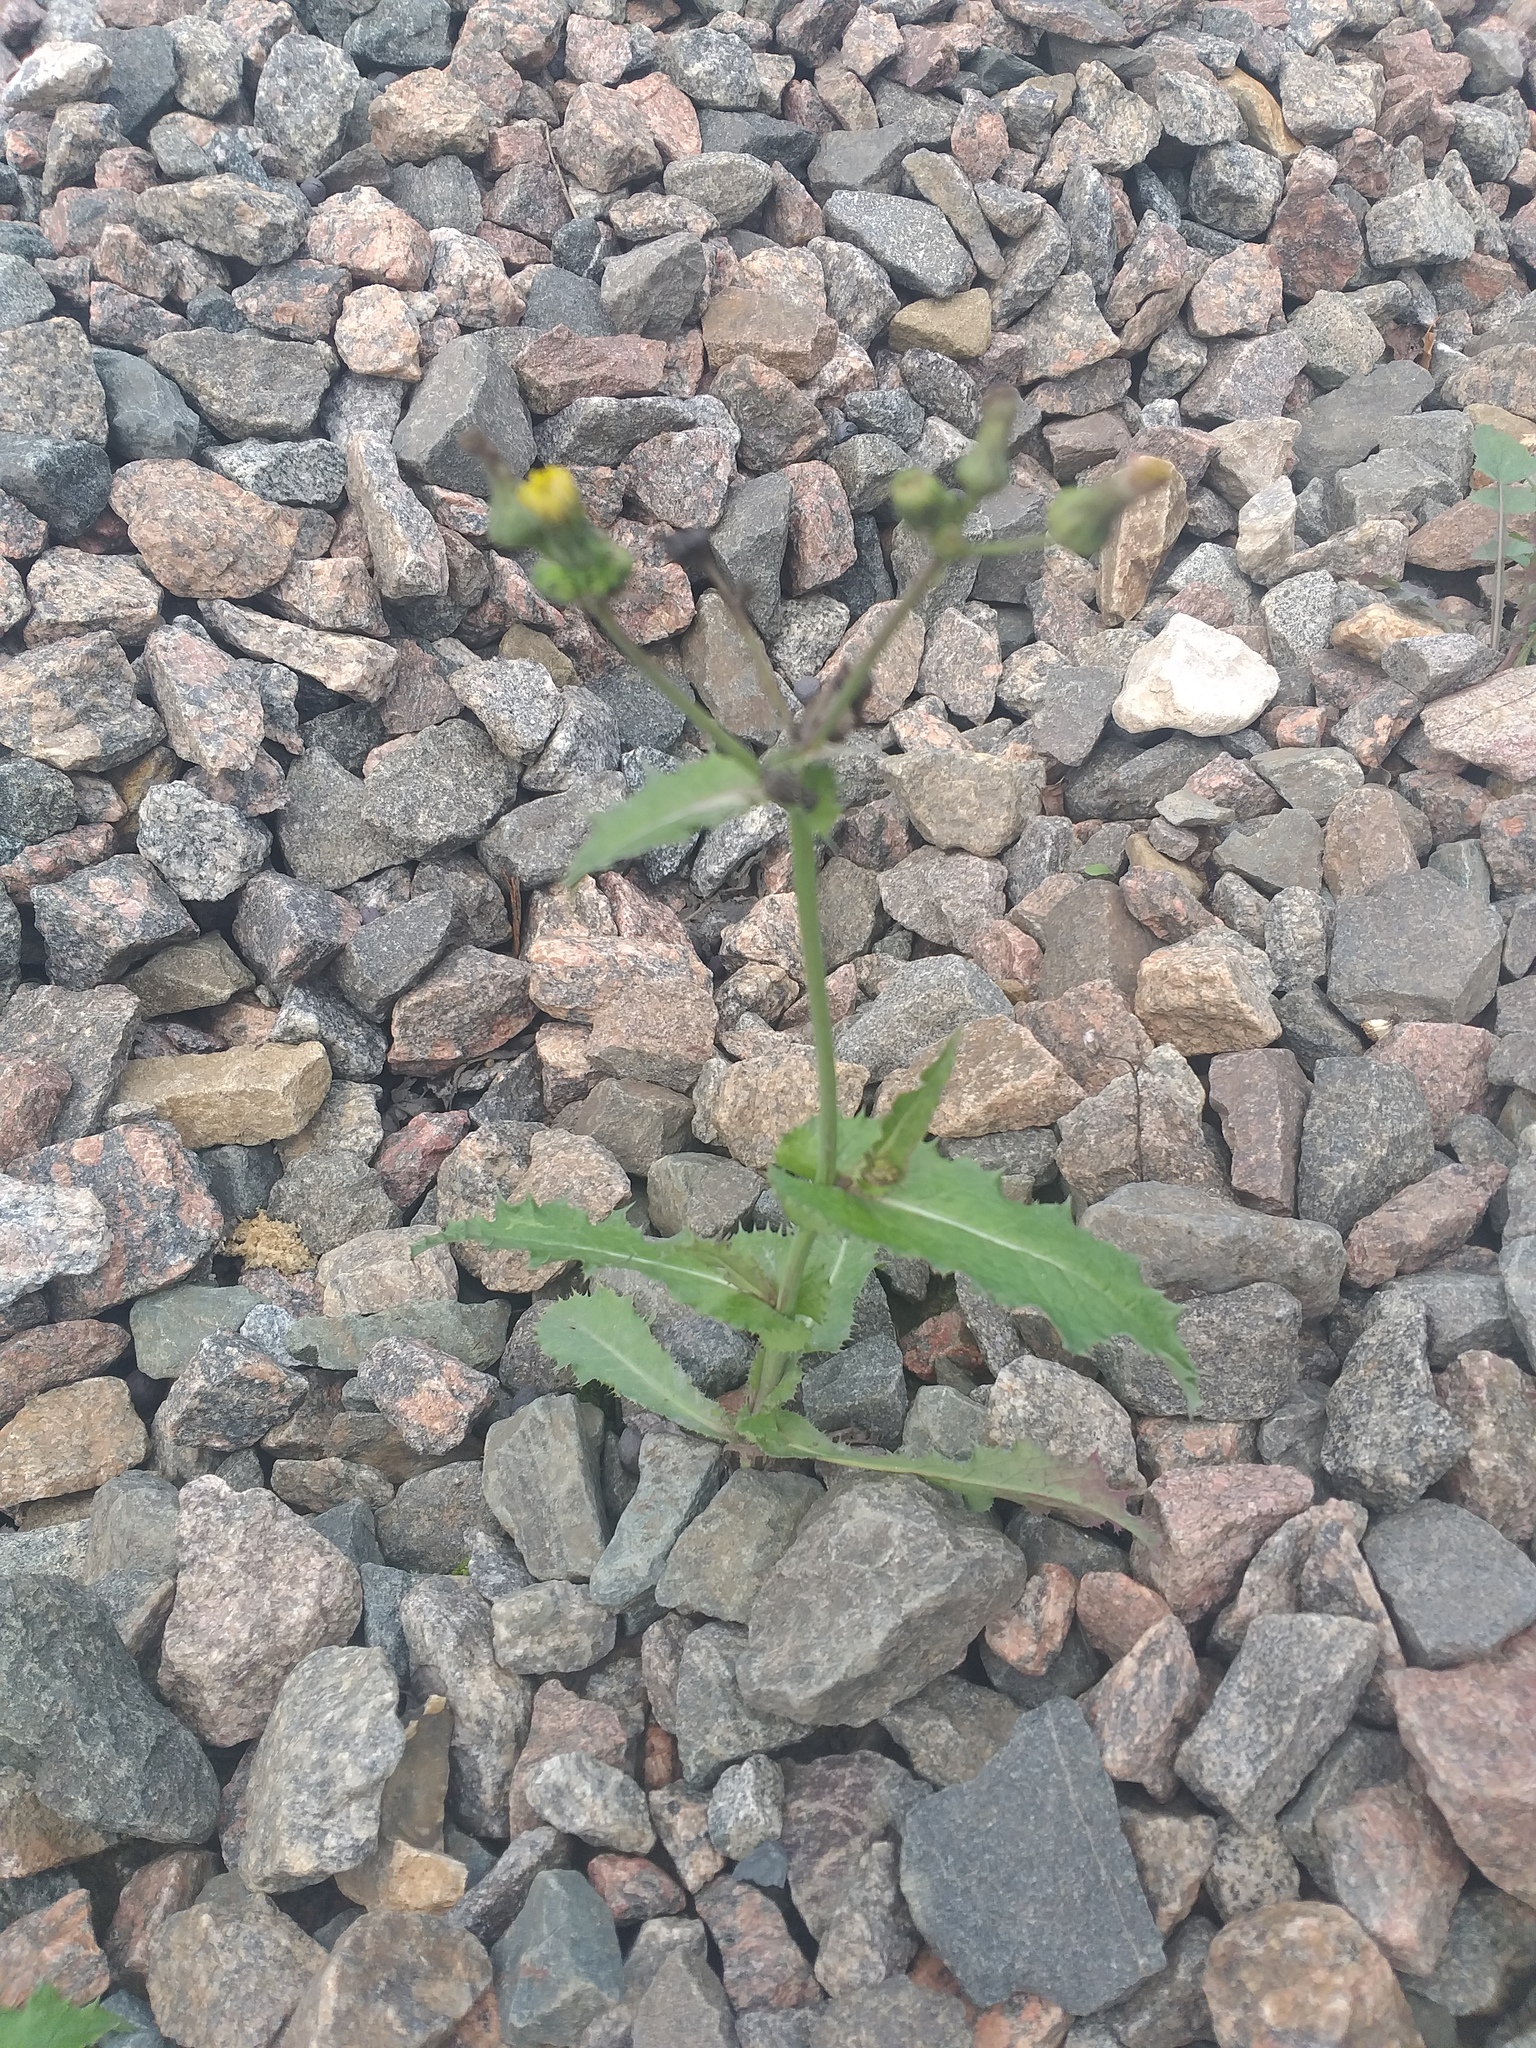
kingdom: Plantae
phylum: Tracheophyta
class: Magnoliopsida
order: Asterales
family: Asteraceae
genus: Sonchus
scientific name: Sonchus asper
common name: Prickly sow-thistle
